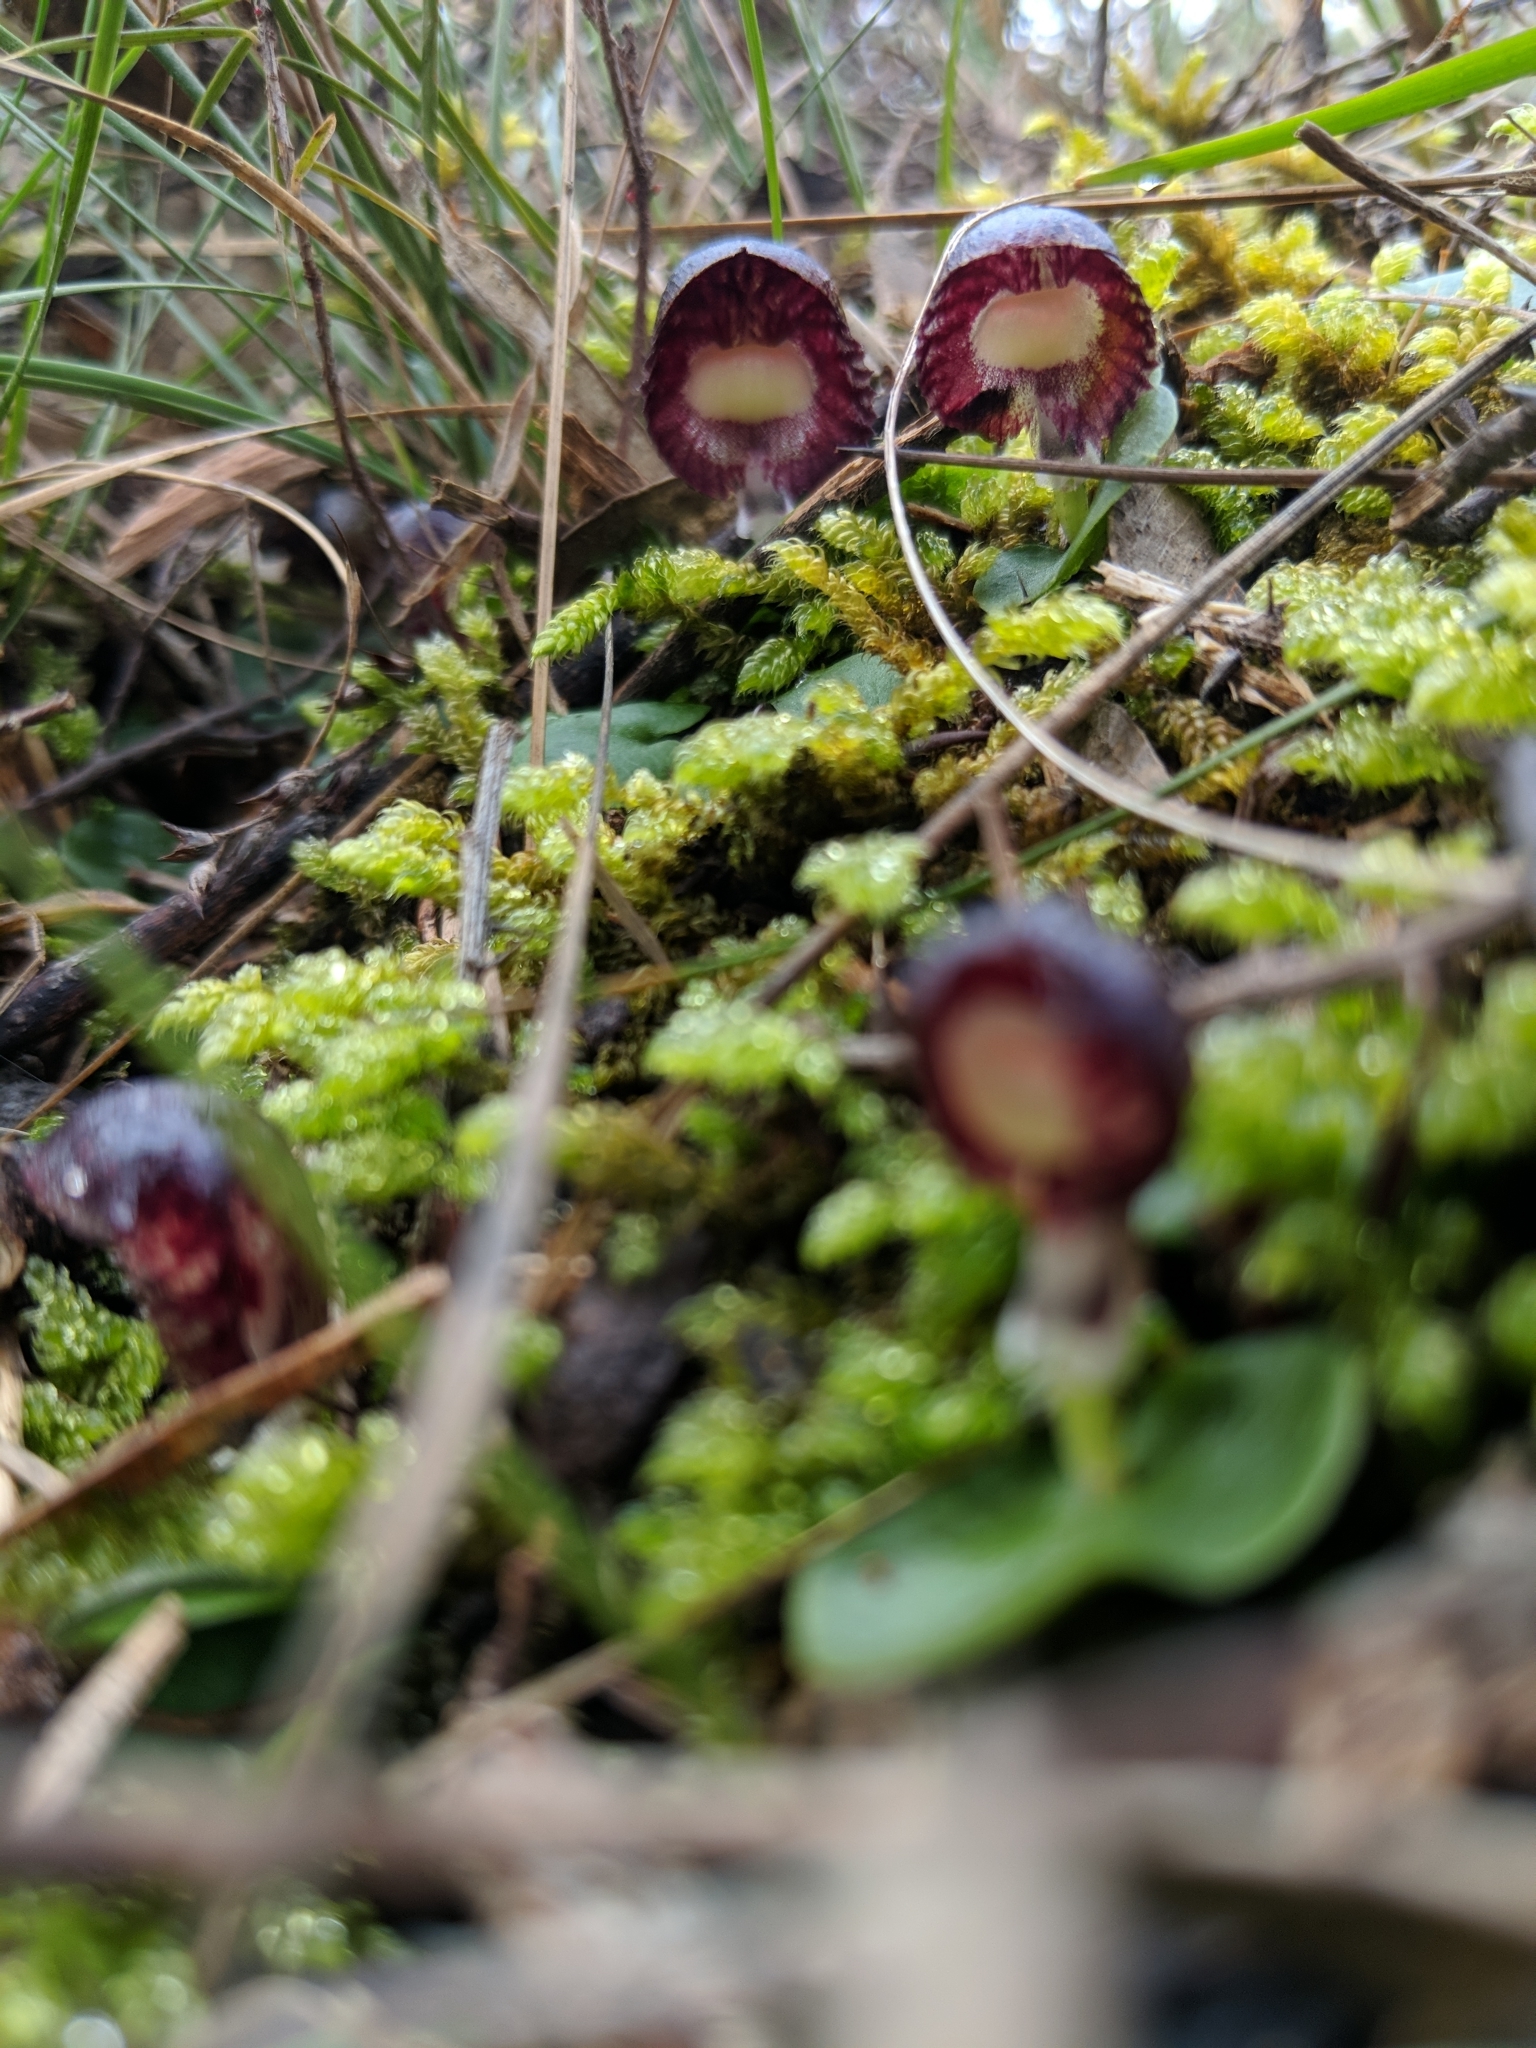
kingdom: Plantae
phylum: Tracheophyta
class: Liliopsida
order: Asparagales
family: Orchidaceae
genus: Corybas
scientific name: Corybas diemenicus
